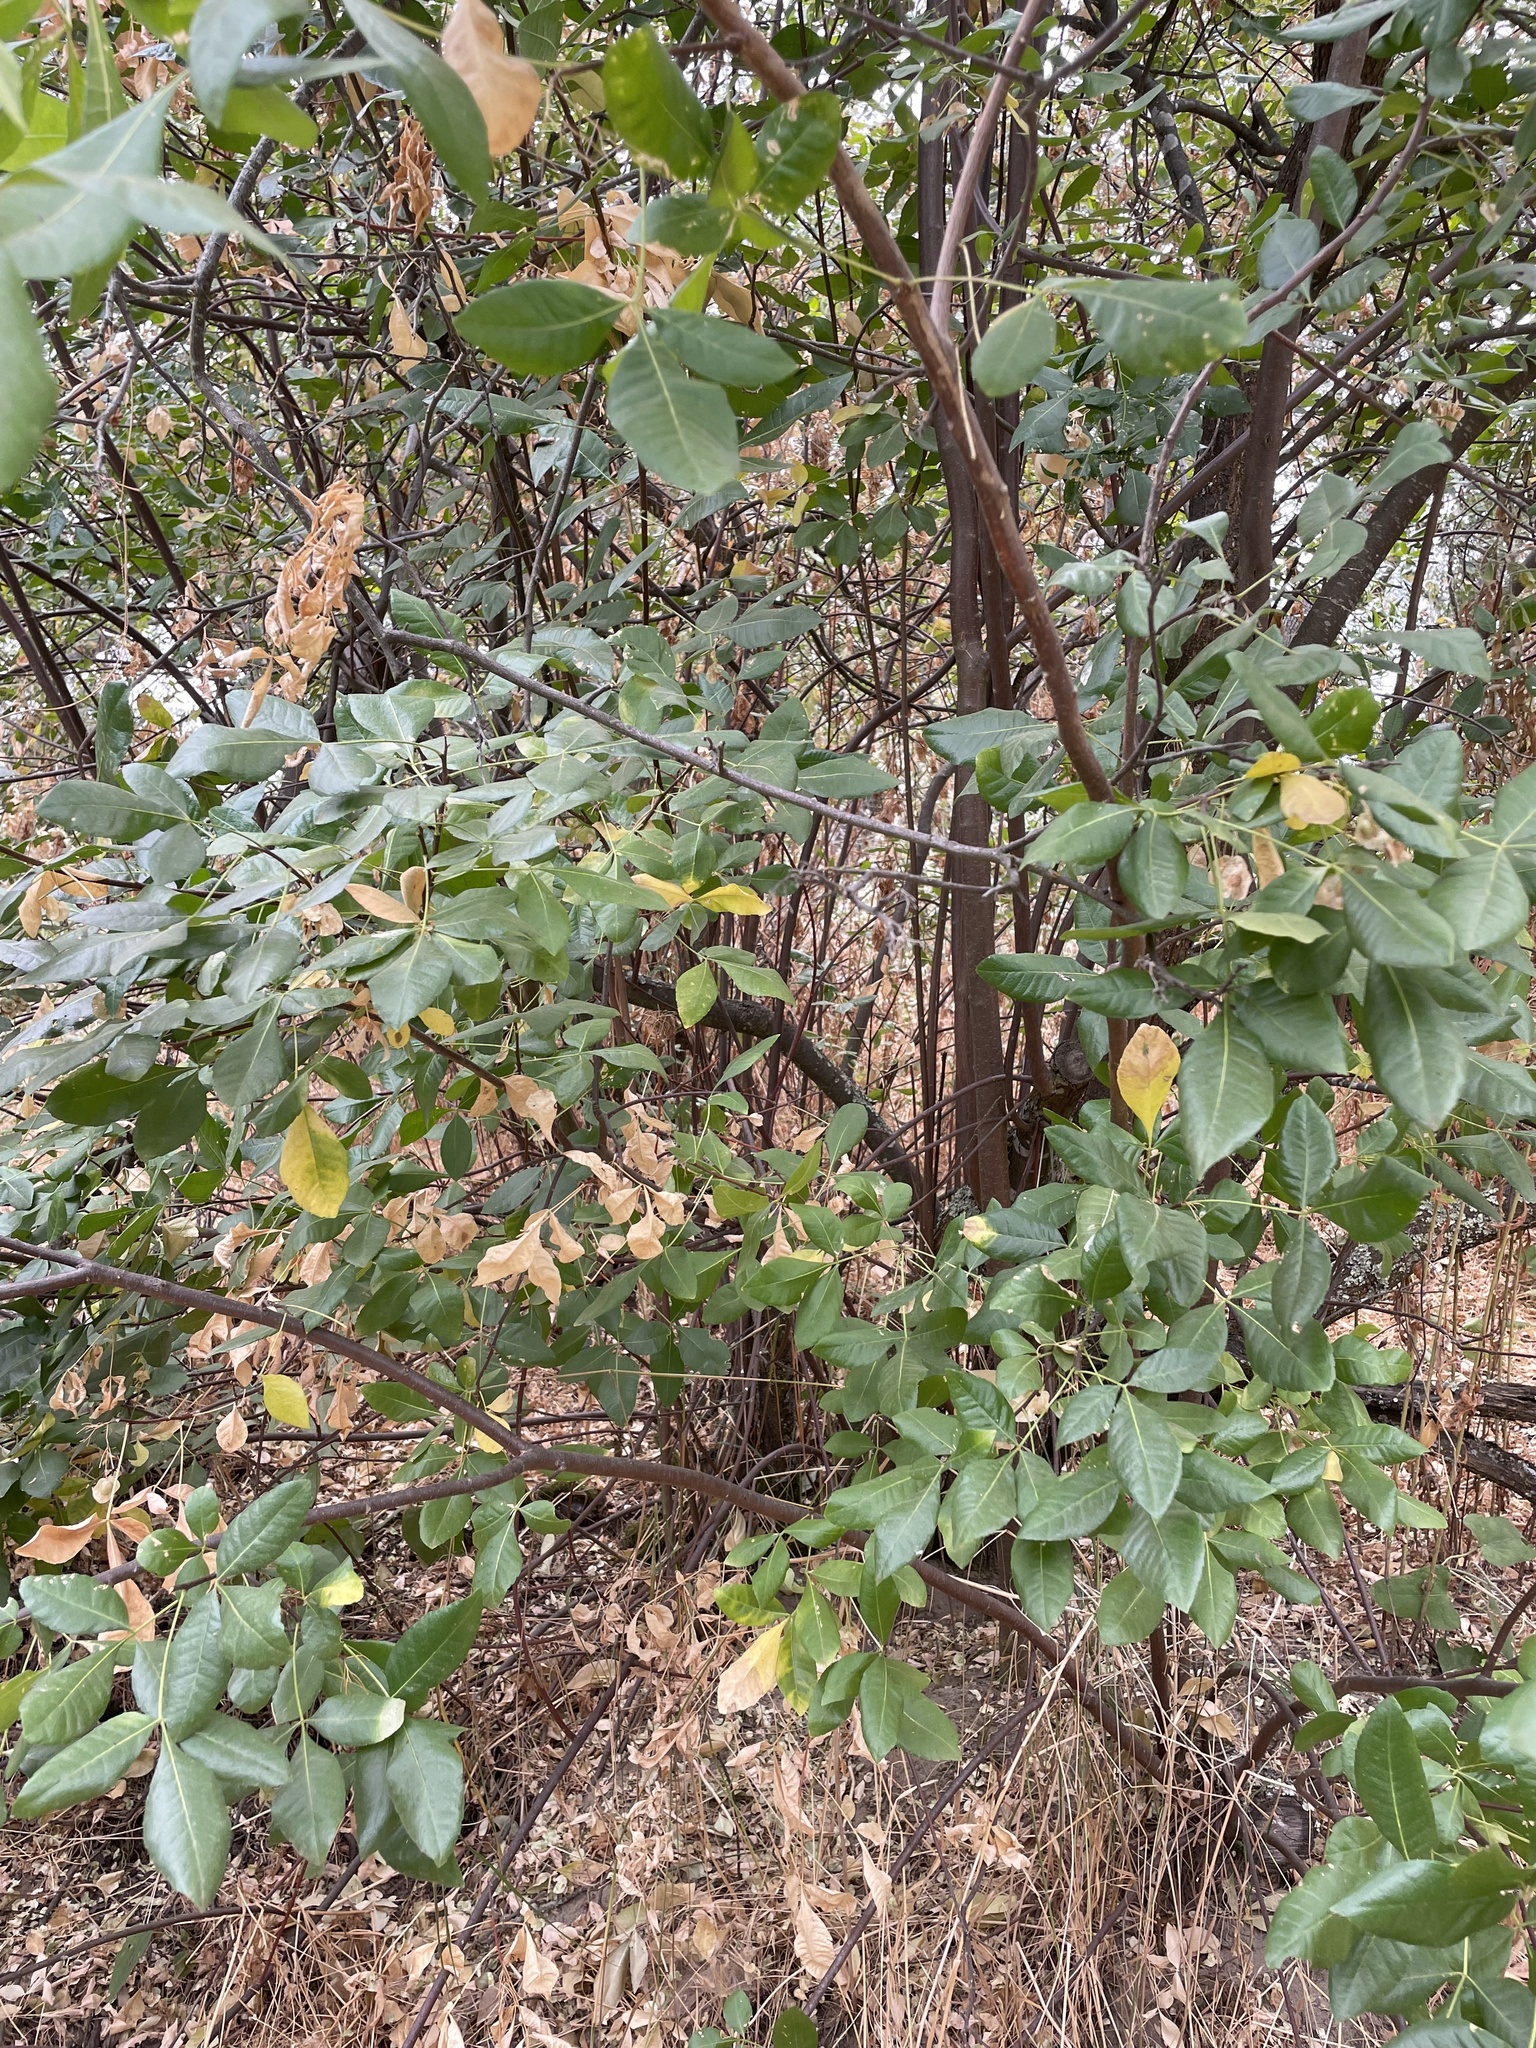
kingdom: Plantae
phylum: Tracheophyta
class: Magnoliopsida
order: Sapindales
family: Rutaceae
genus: Ptelea
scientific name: Ptelea crenulata
